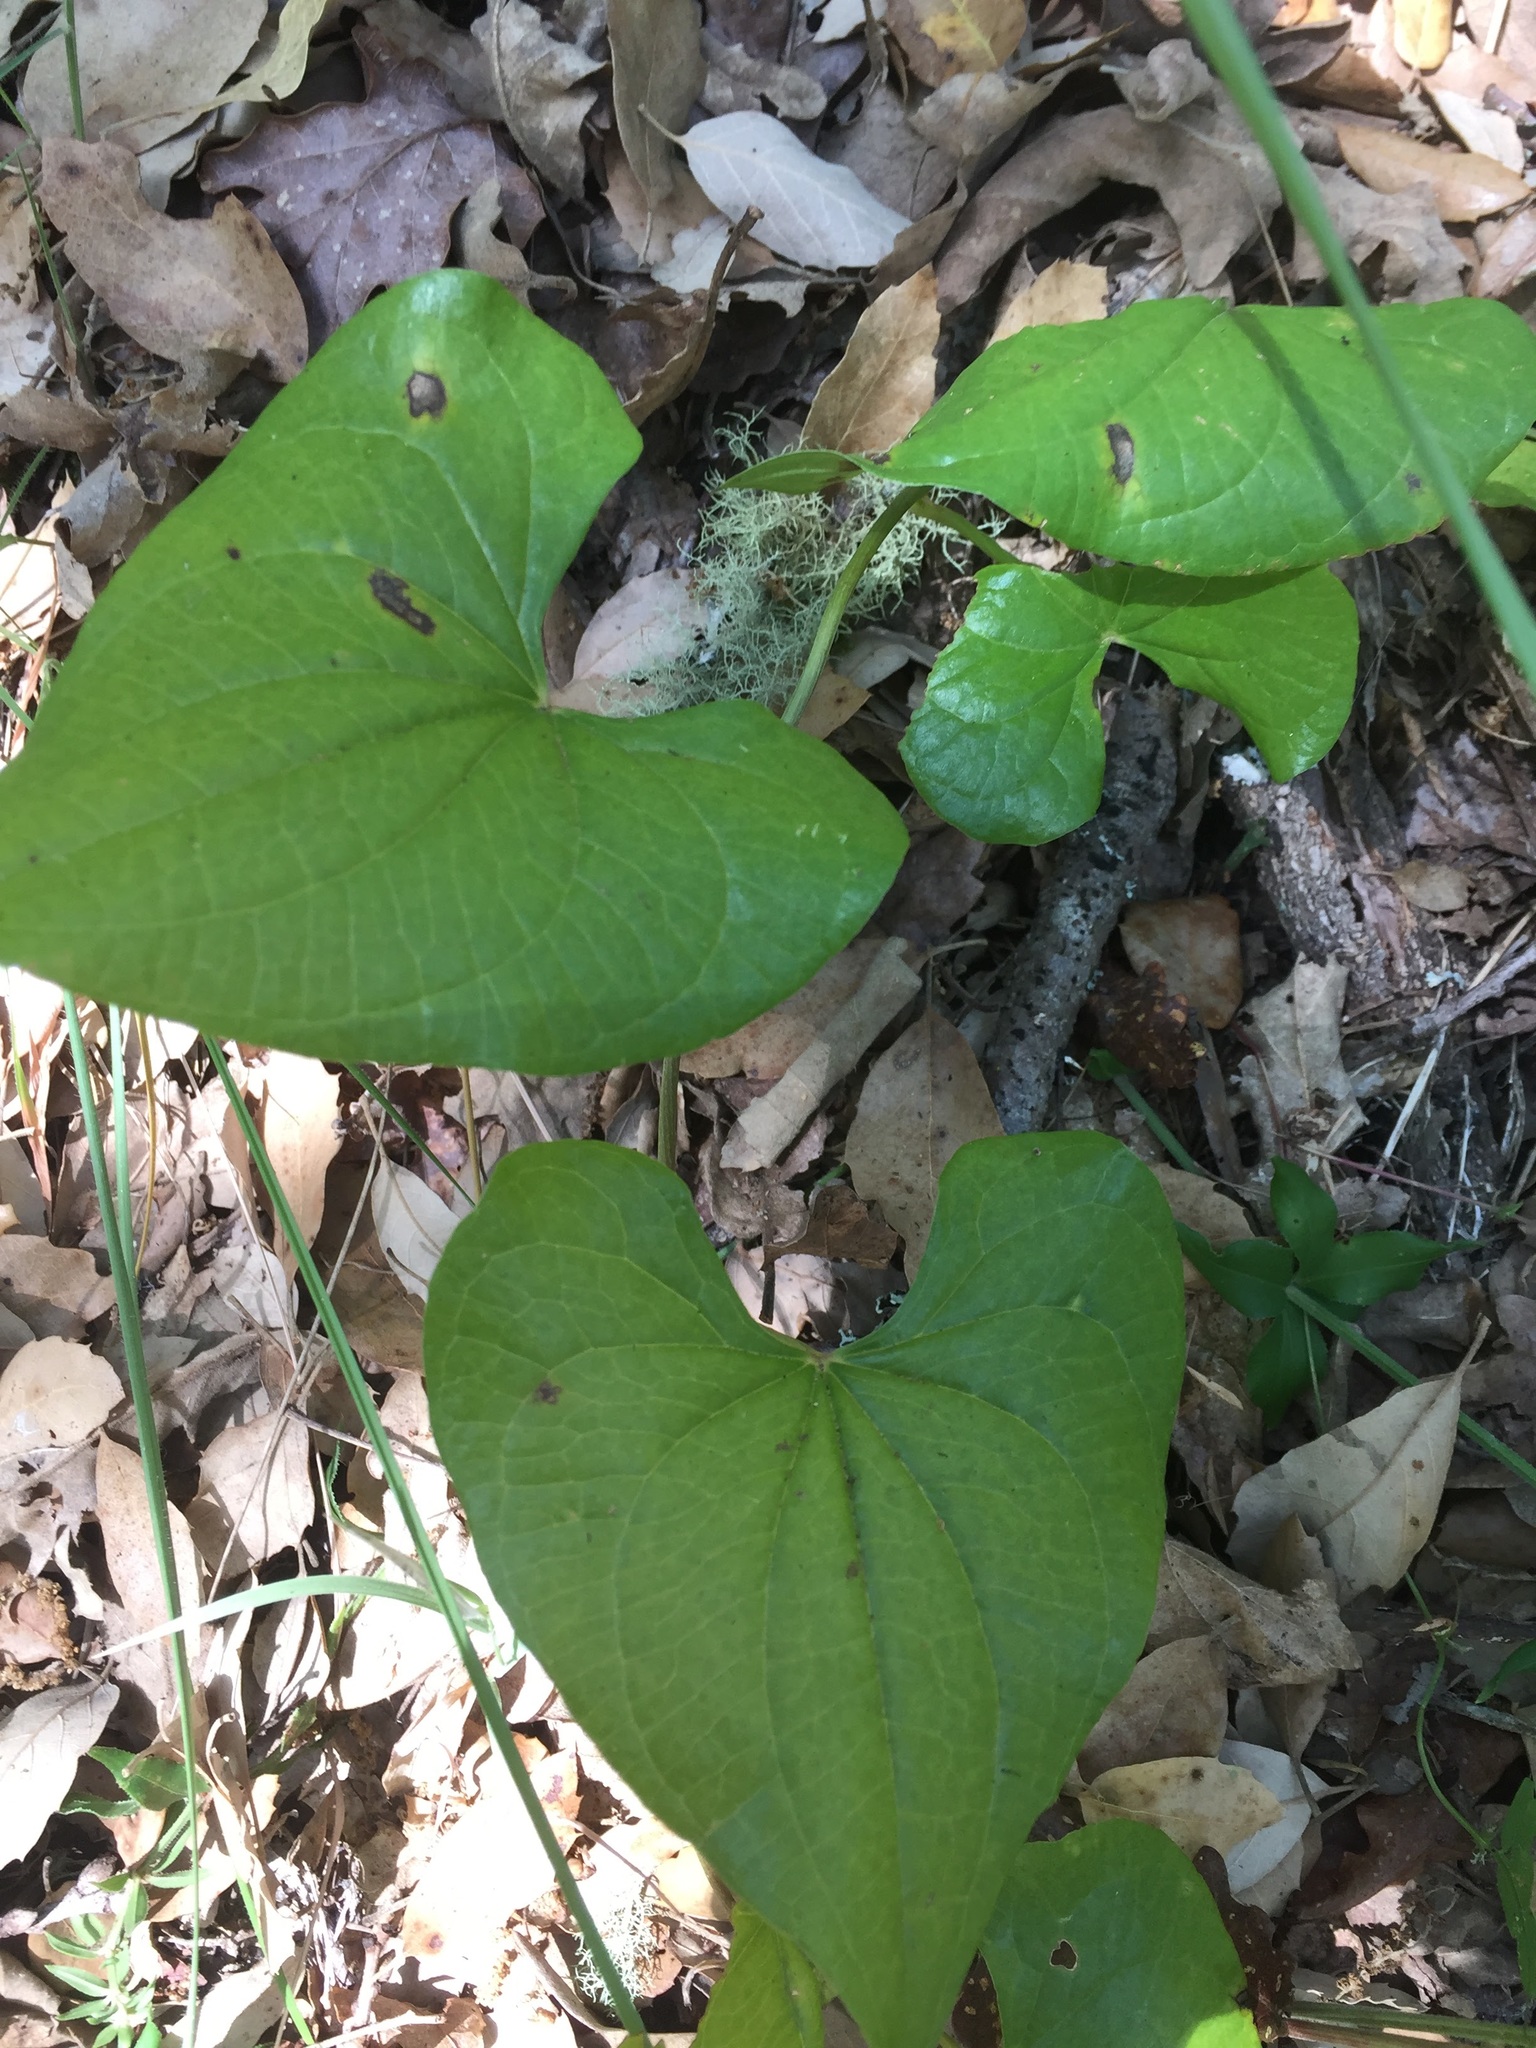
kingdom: Plantae
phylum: Tracheophyta
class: Liliopsida
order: Dioscoreales
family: Dioscoreaceae
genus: Dioscorea
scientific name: Dioscorea communis
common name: Black-bindweed
